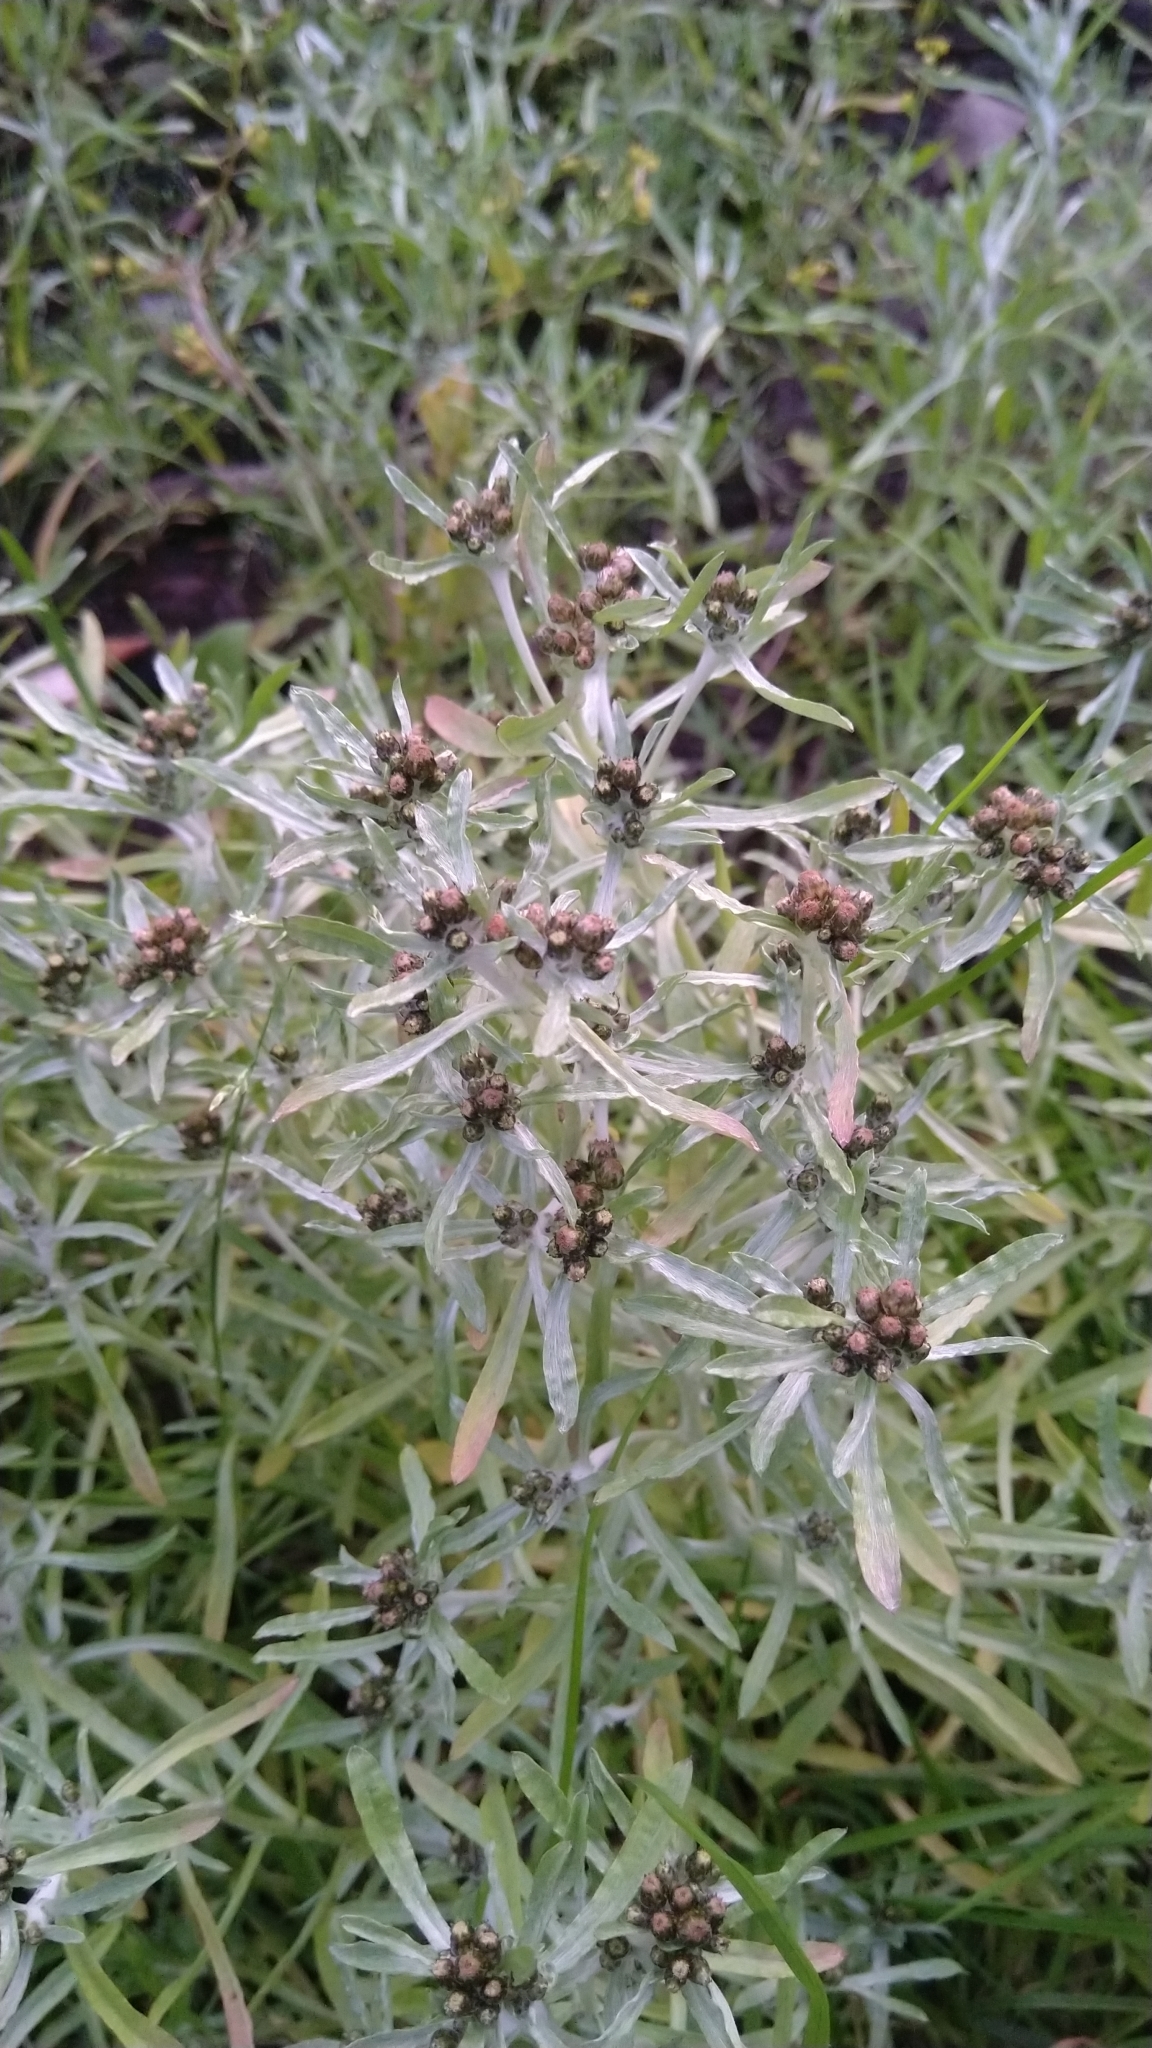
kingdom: Plantae
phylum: Tracheophyta
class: Magnoliopsida
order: Asterales
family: Asteraceae
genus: Gnaphalium
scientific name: Gnaphalium uliginosum
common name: Marsh cudweed
